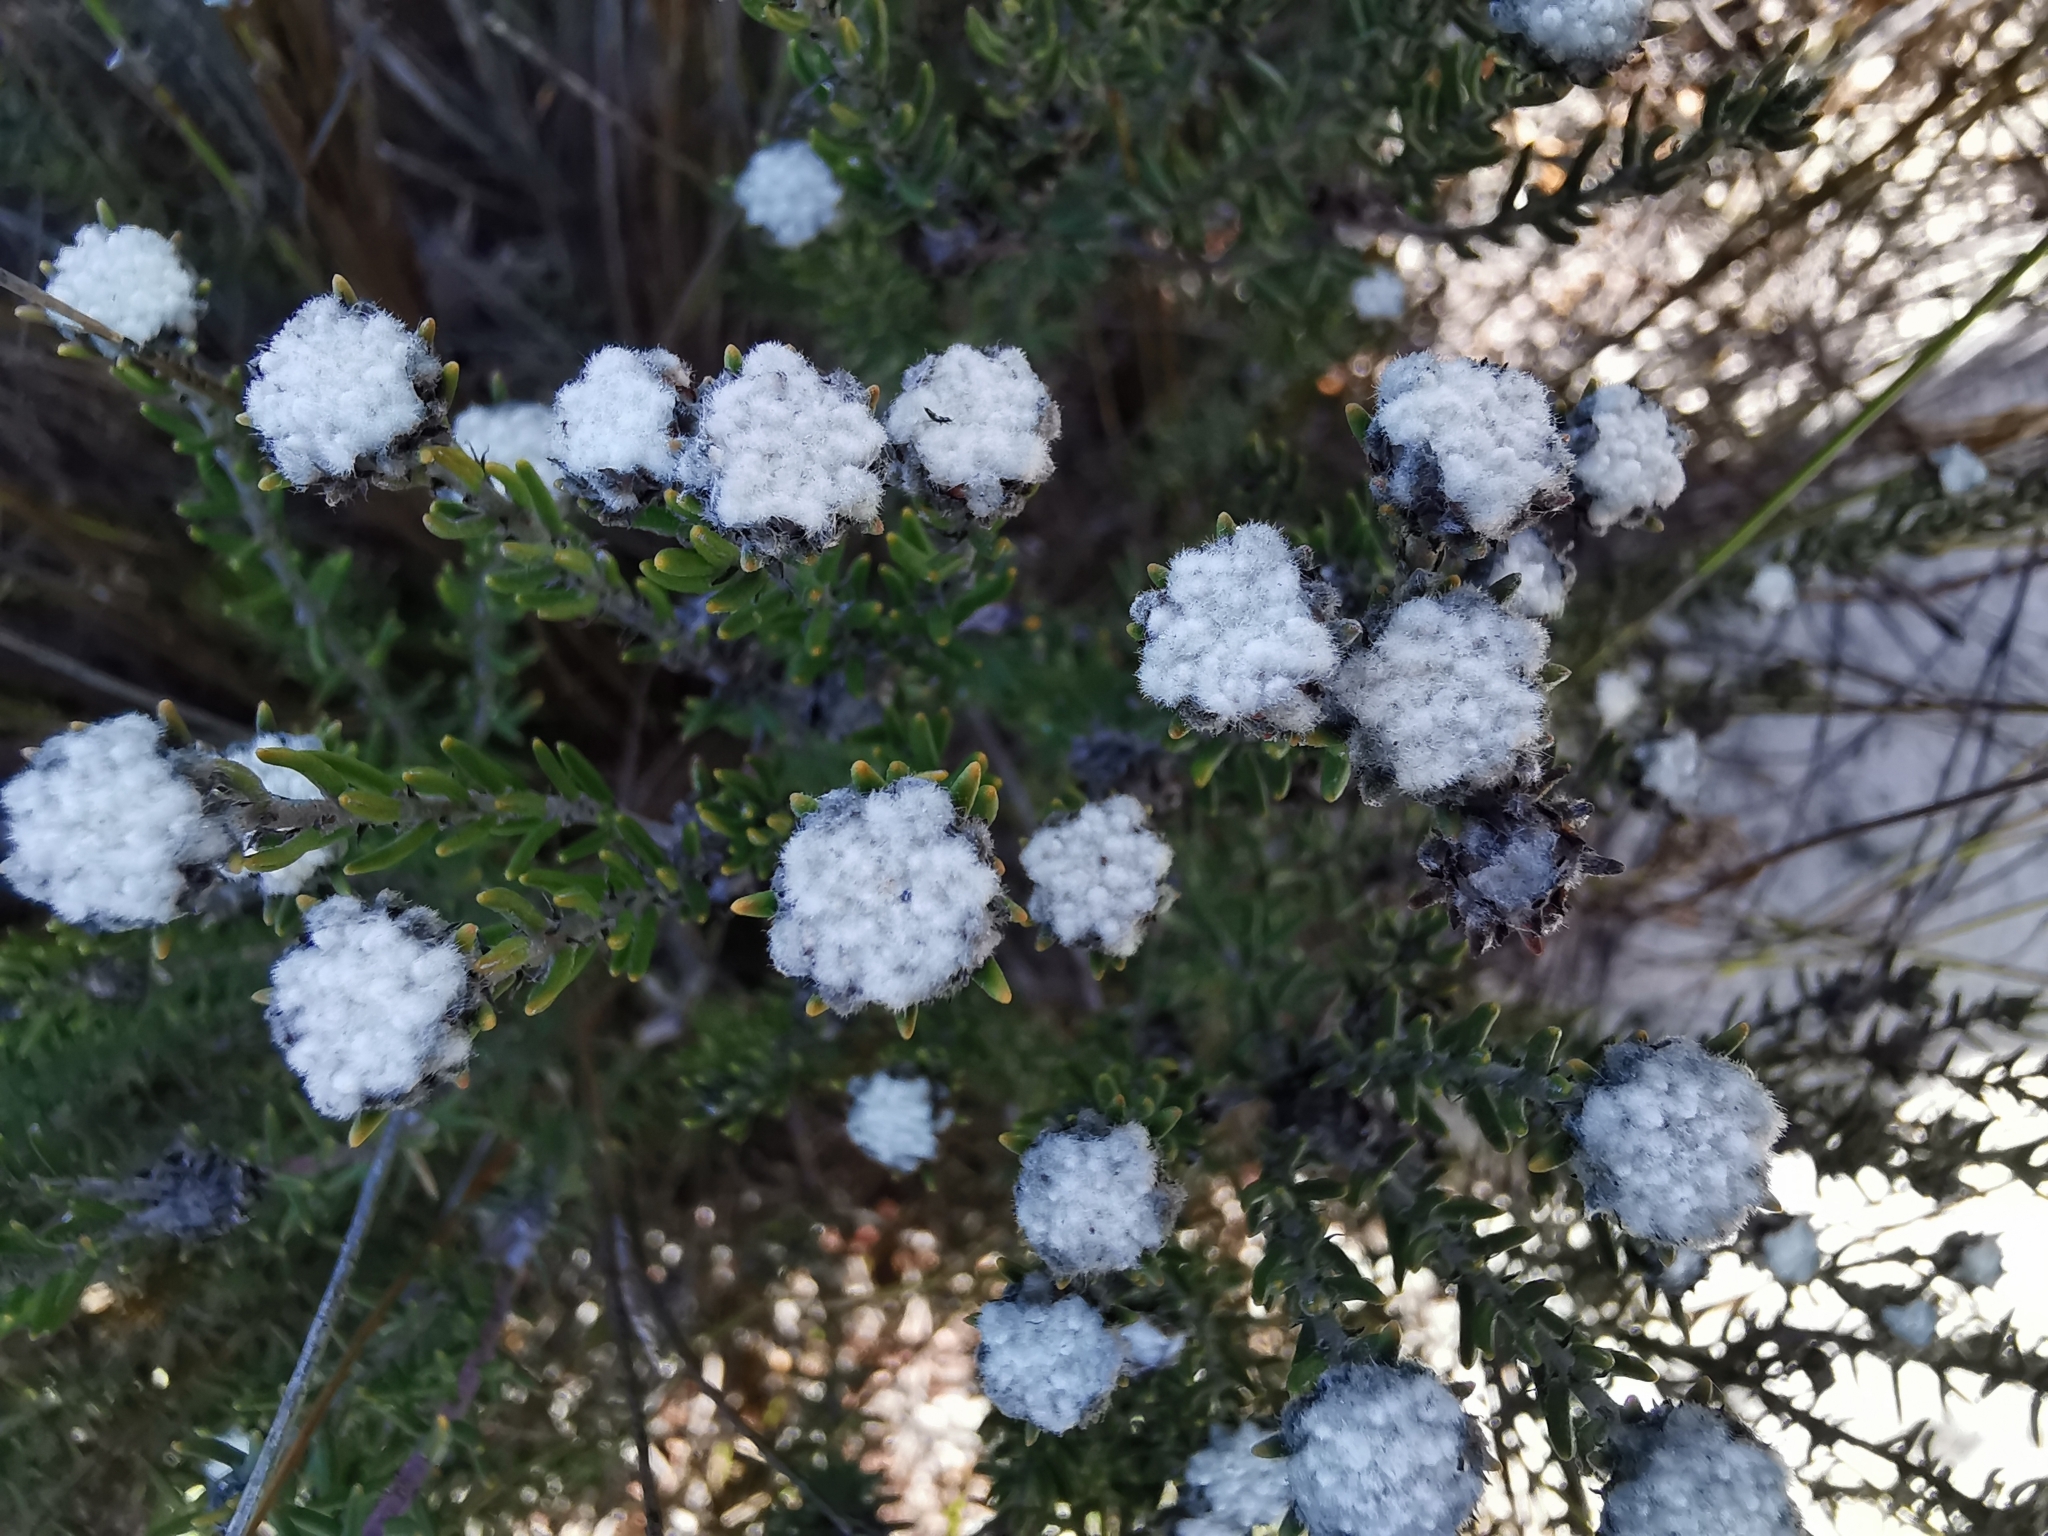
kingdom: Plantae
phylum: Tracheophyta
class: Magnoliopsida
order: Rosales
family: Rhamnaceae
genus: Trichocephalus
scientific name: Trichocephalus stipularis
